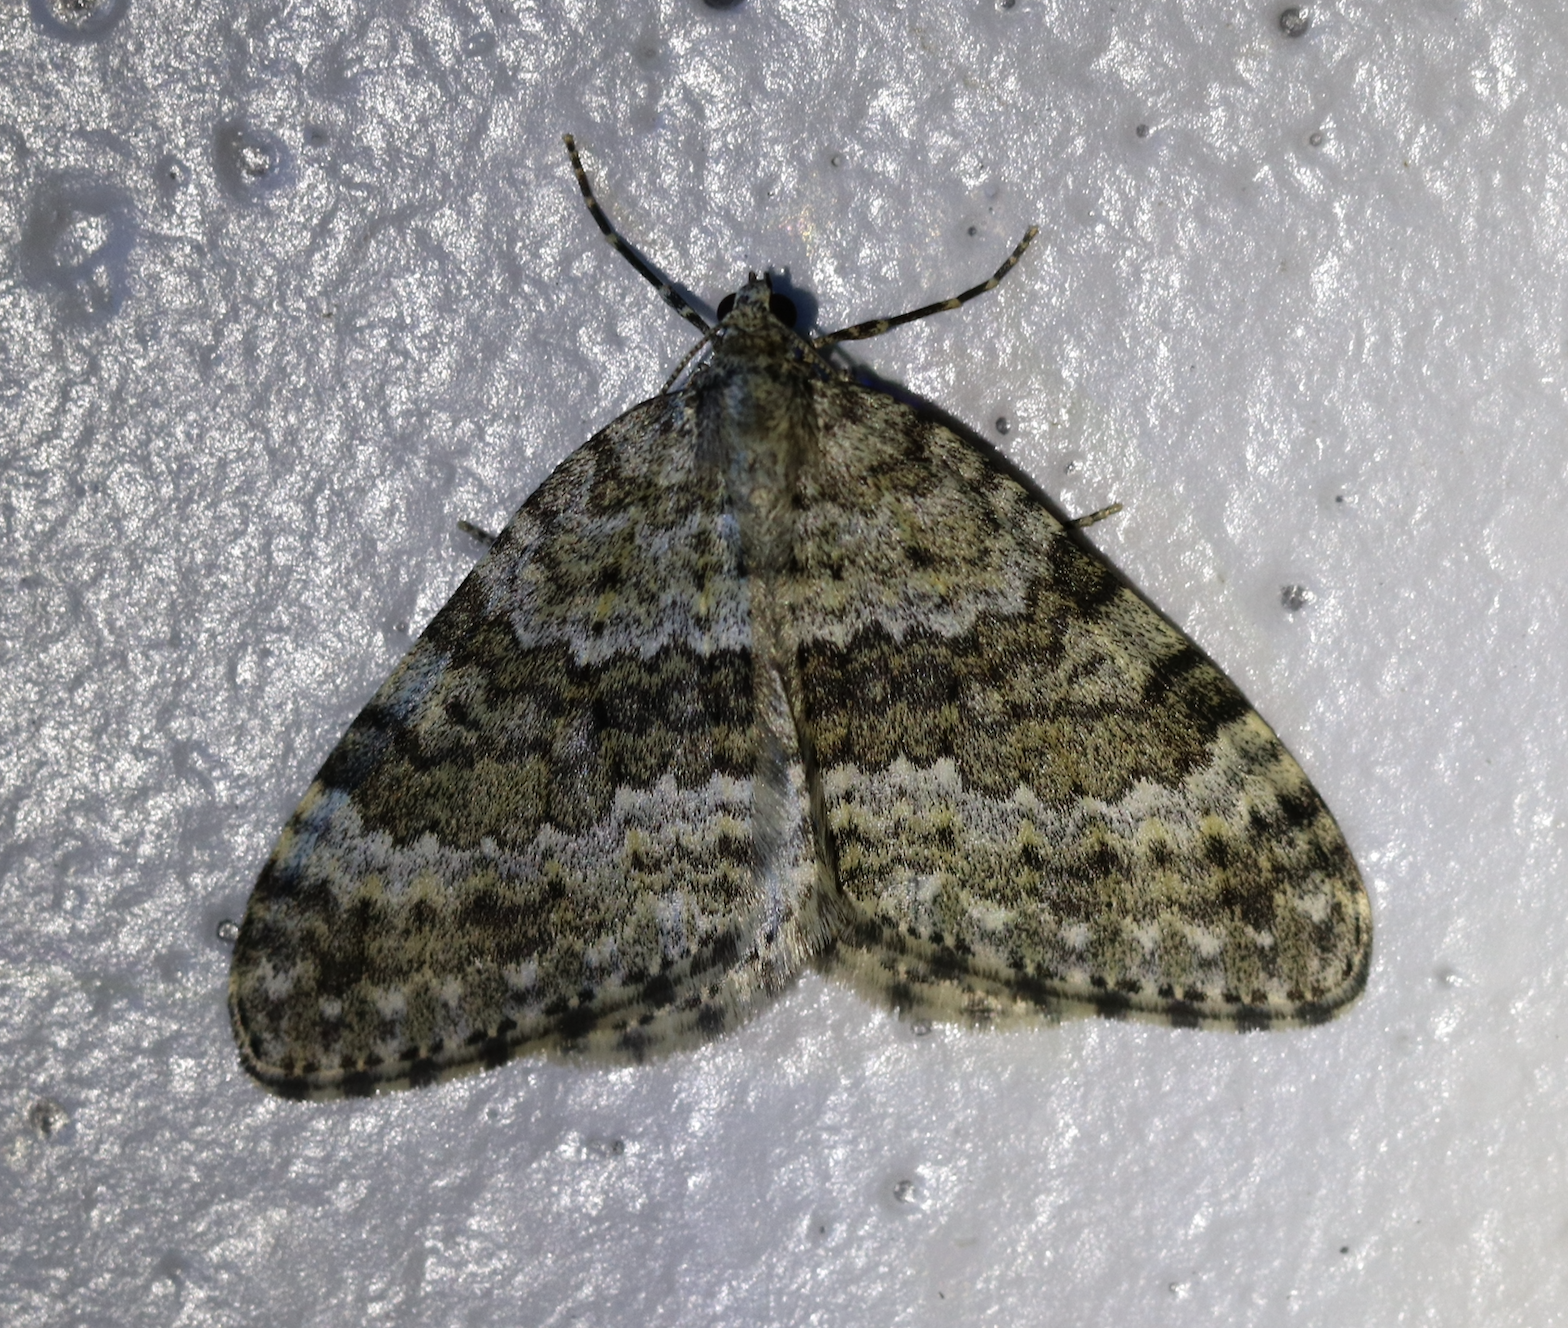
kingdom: Animalia
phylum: Arthropoda
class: Insecta
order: Lepidoptera
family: Geometridae
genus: Entephria
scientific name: Entephria caesiata
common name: Grey mountain moth
